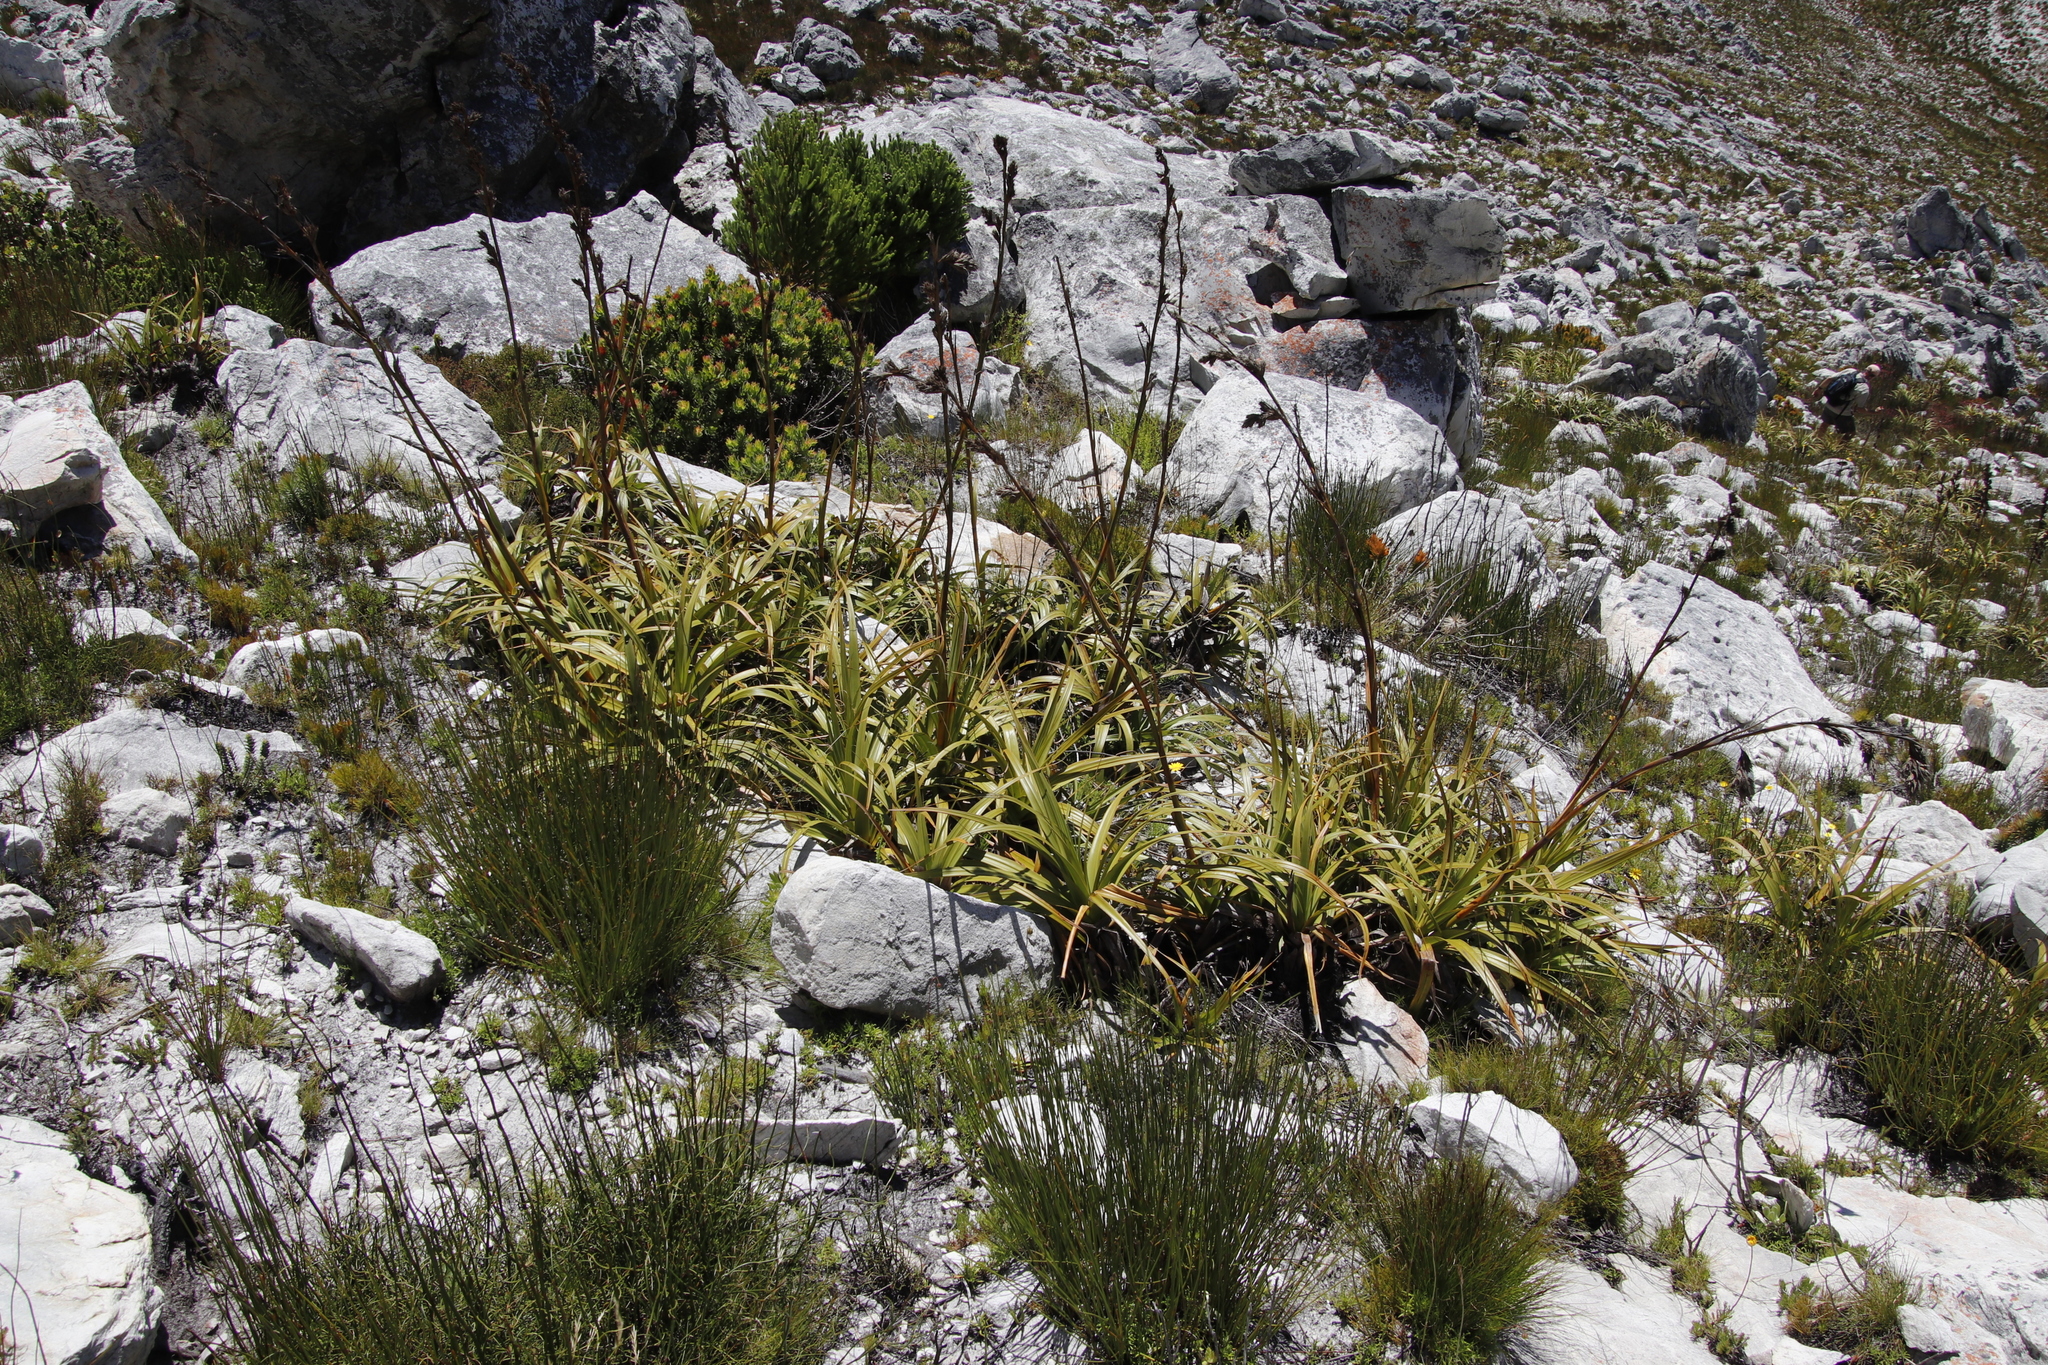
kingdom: Plantae
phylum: Tracheophyta
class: Liliopsida
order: Poales
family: Cyperaceae
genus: Tetraria
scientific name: Tetraria thermalis
